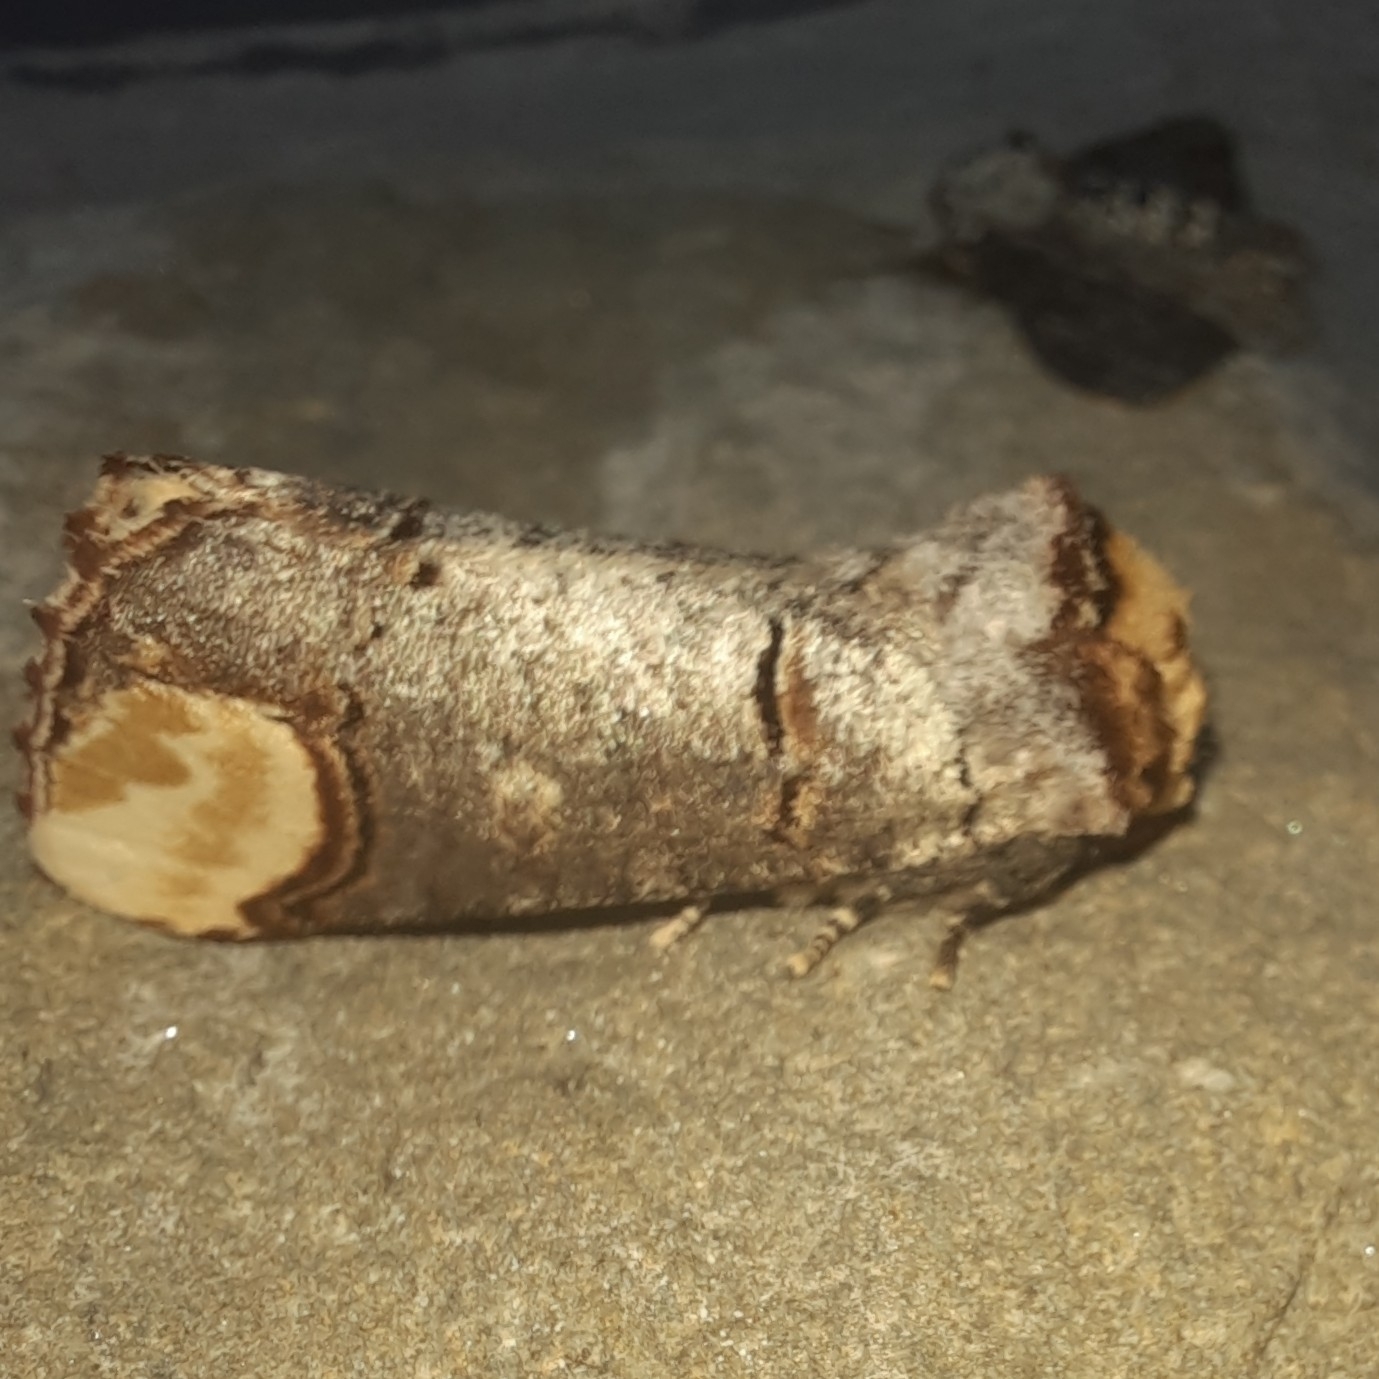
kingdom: Animalia
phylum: Arthropoda
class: Insecta
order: Lepidoptera
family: Notodontidae
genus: Phalera
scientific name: Phalera bucephala
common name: Buff-tip
